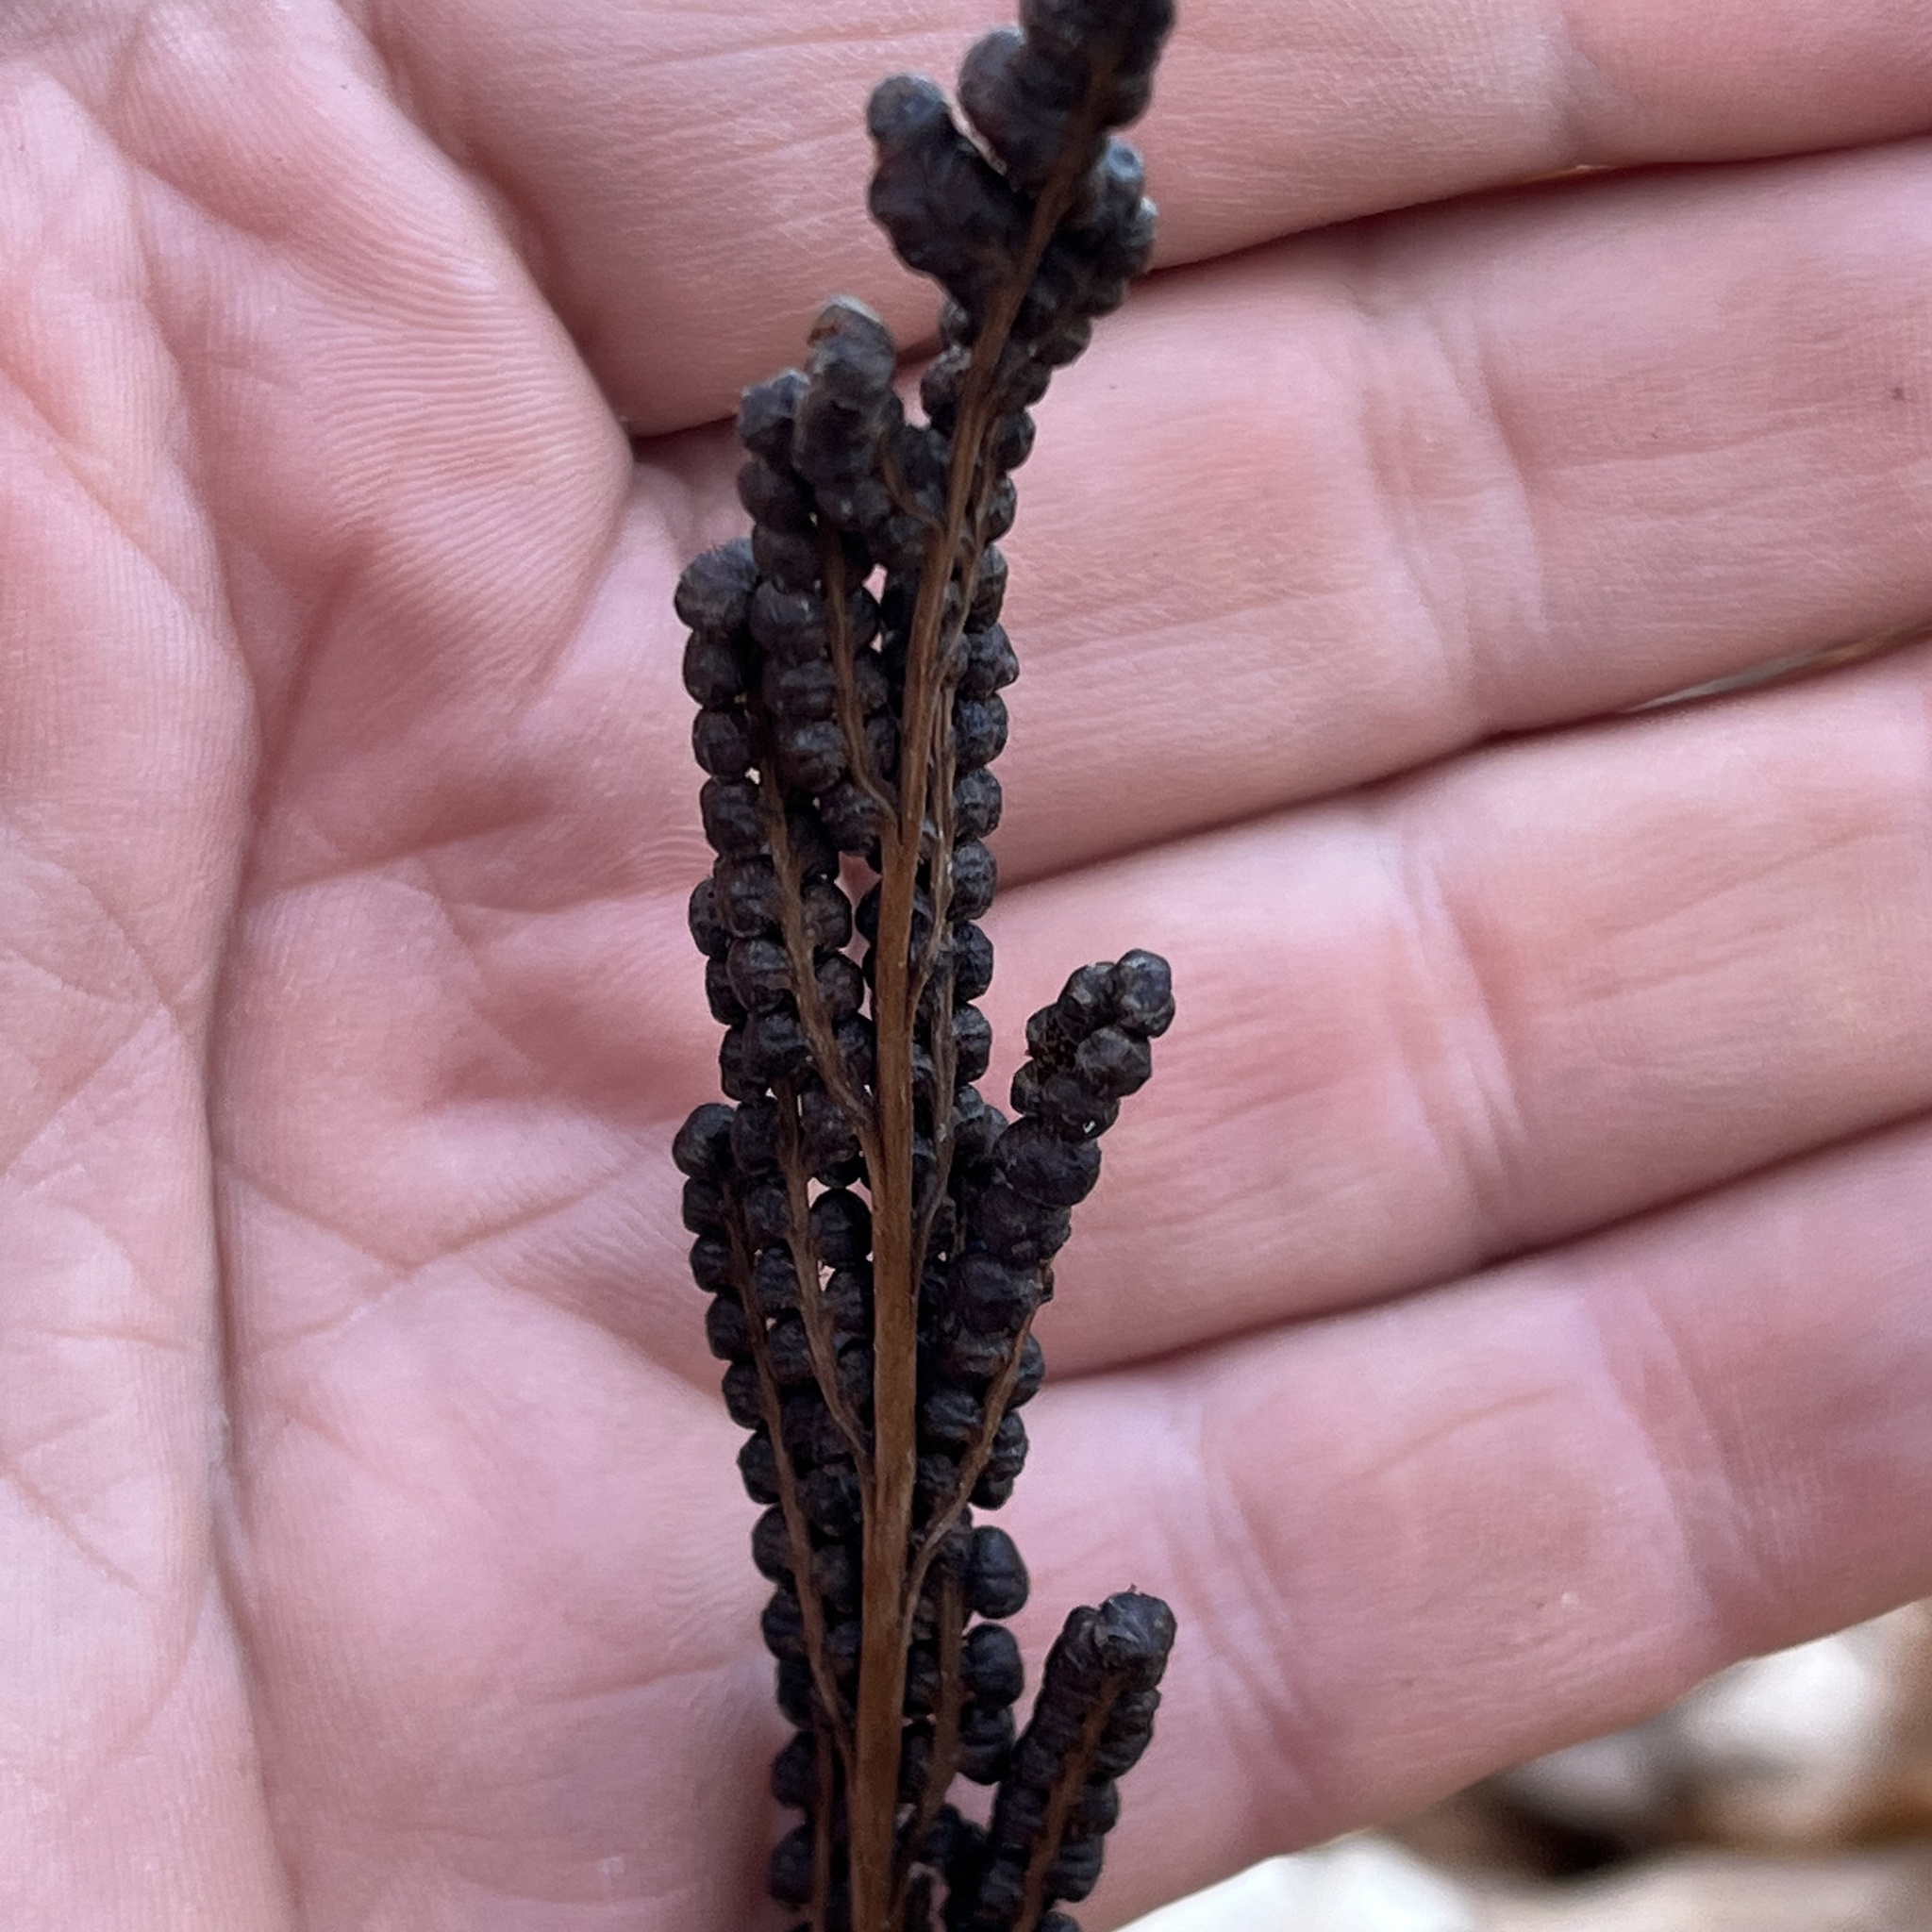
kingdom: Plantae
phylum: Tracheophyta
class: Polypodiopsida
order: Polypodiales
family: Onocleaceae
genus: Onoclea
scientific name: Onoclea sensibilis
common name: Sensitive fern
